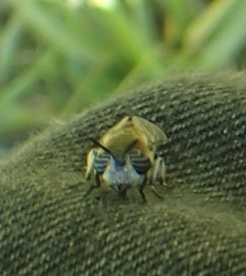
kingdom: Animalia
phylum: Arthropoda
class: Insecta
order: Diptera
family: Tabanidae
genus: Heptatoma
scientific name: Heptatoma pellucens
